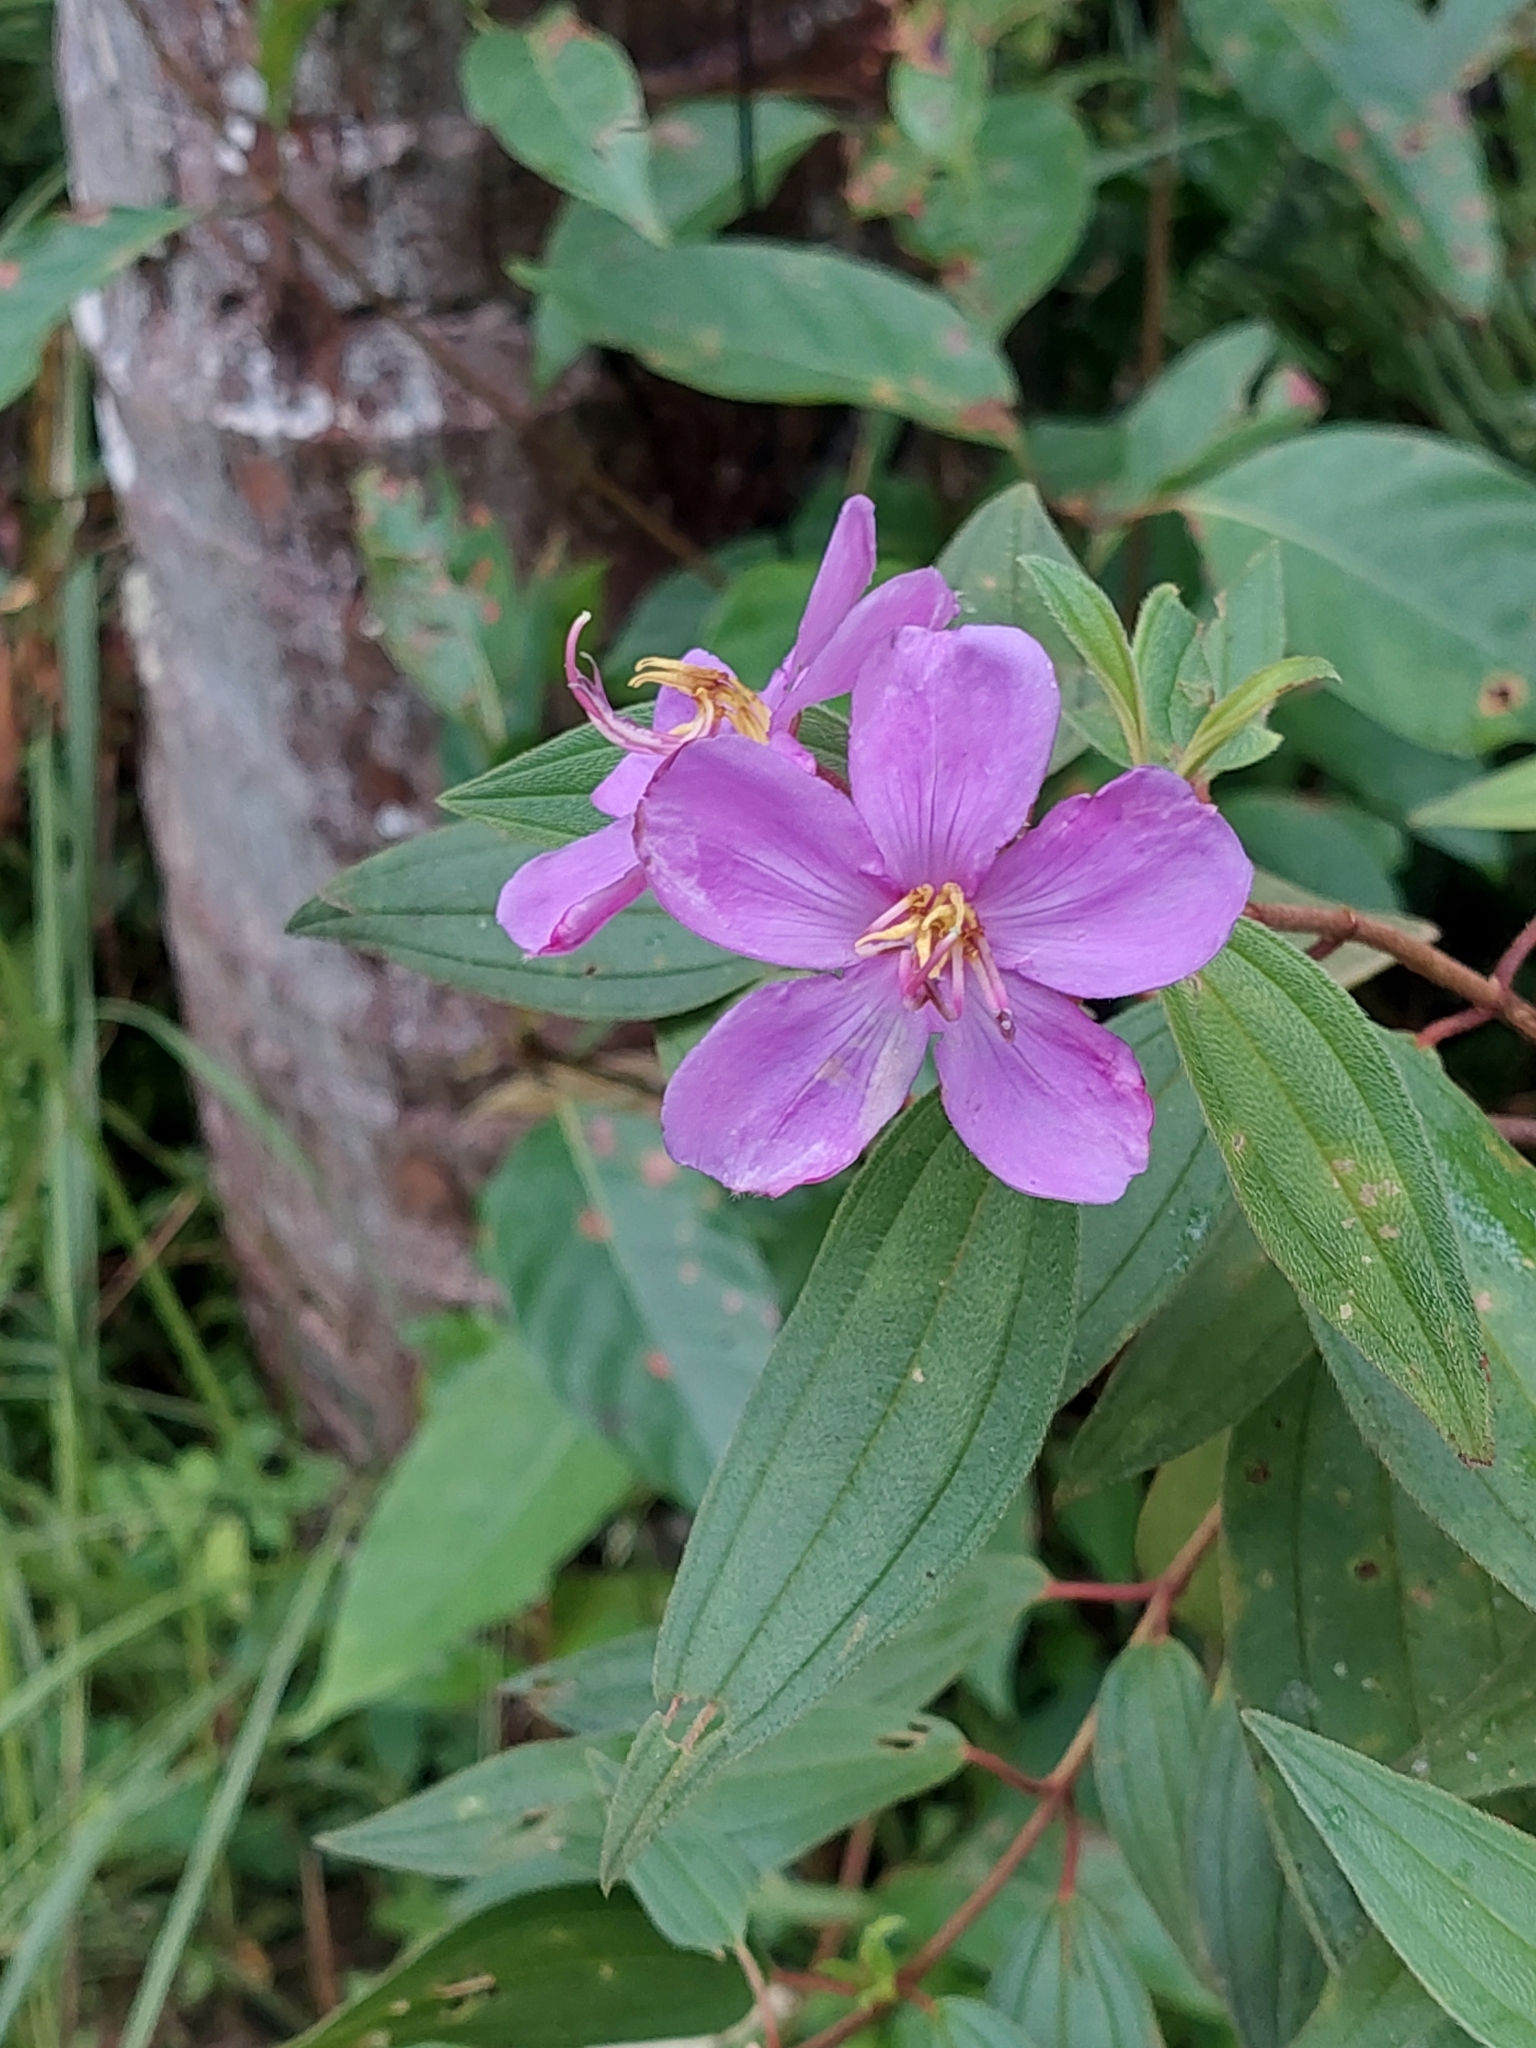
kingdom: Plantae
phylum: Tracheophyta
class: Magnoliopsida
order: Myrtales
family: Melastomataceae
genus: Melastoma
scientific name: Melastoma malabathricum
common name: Indian-rhododendron
